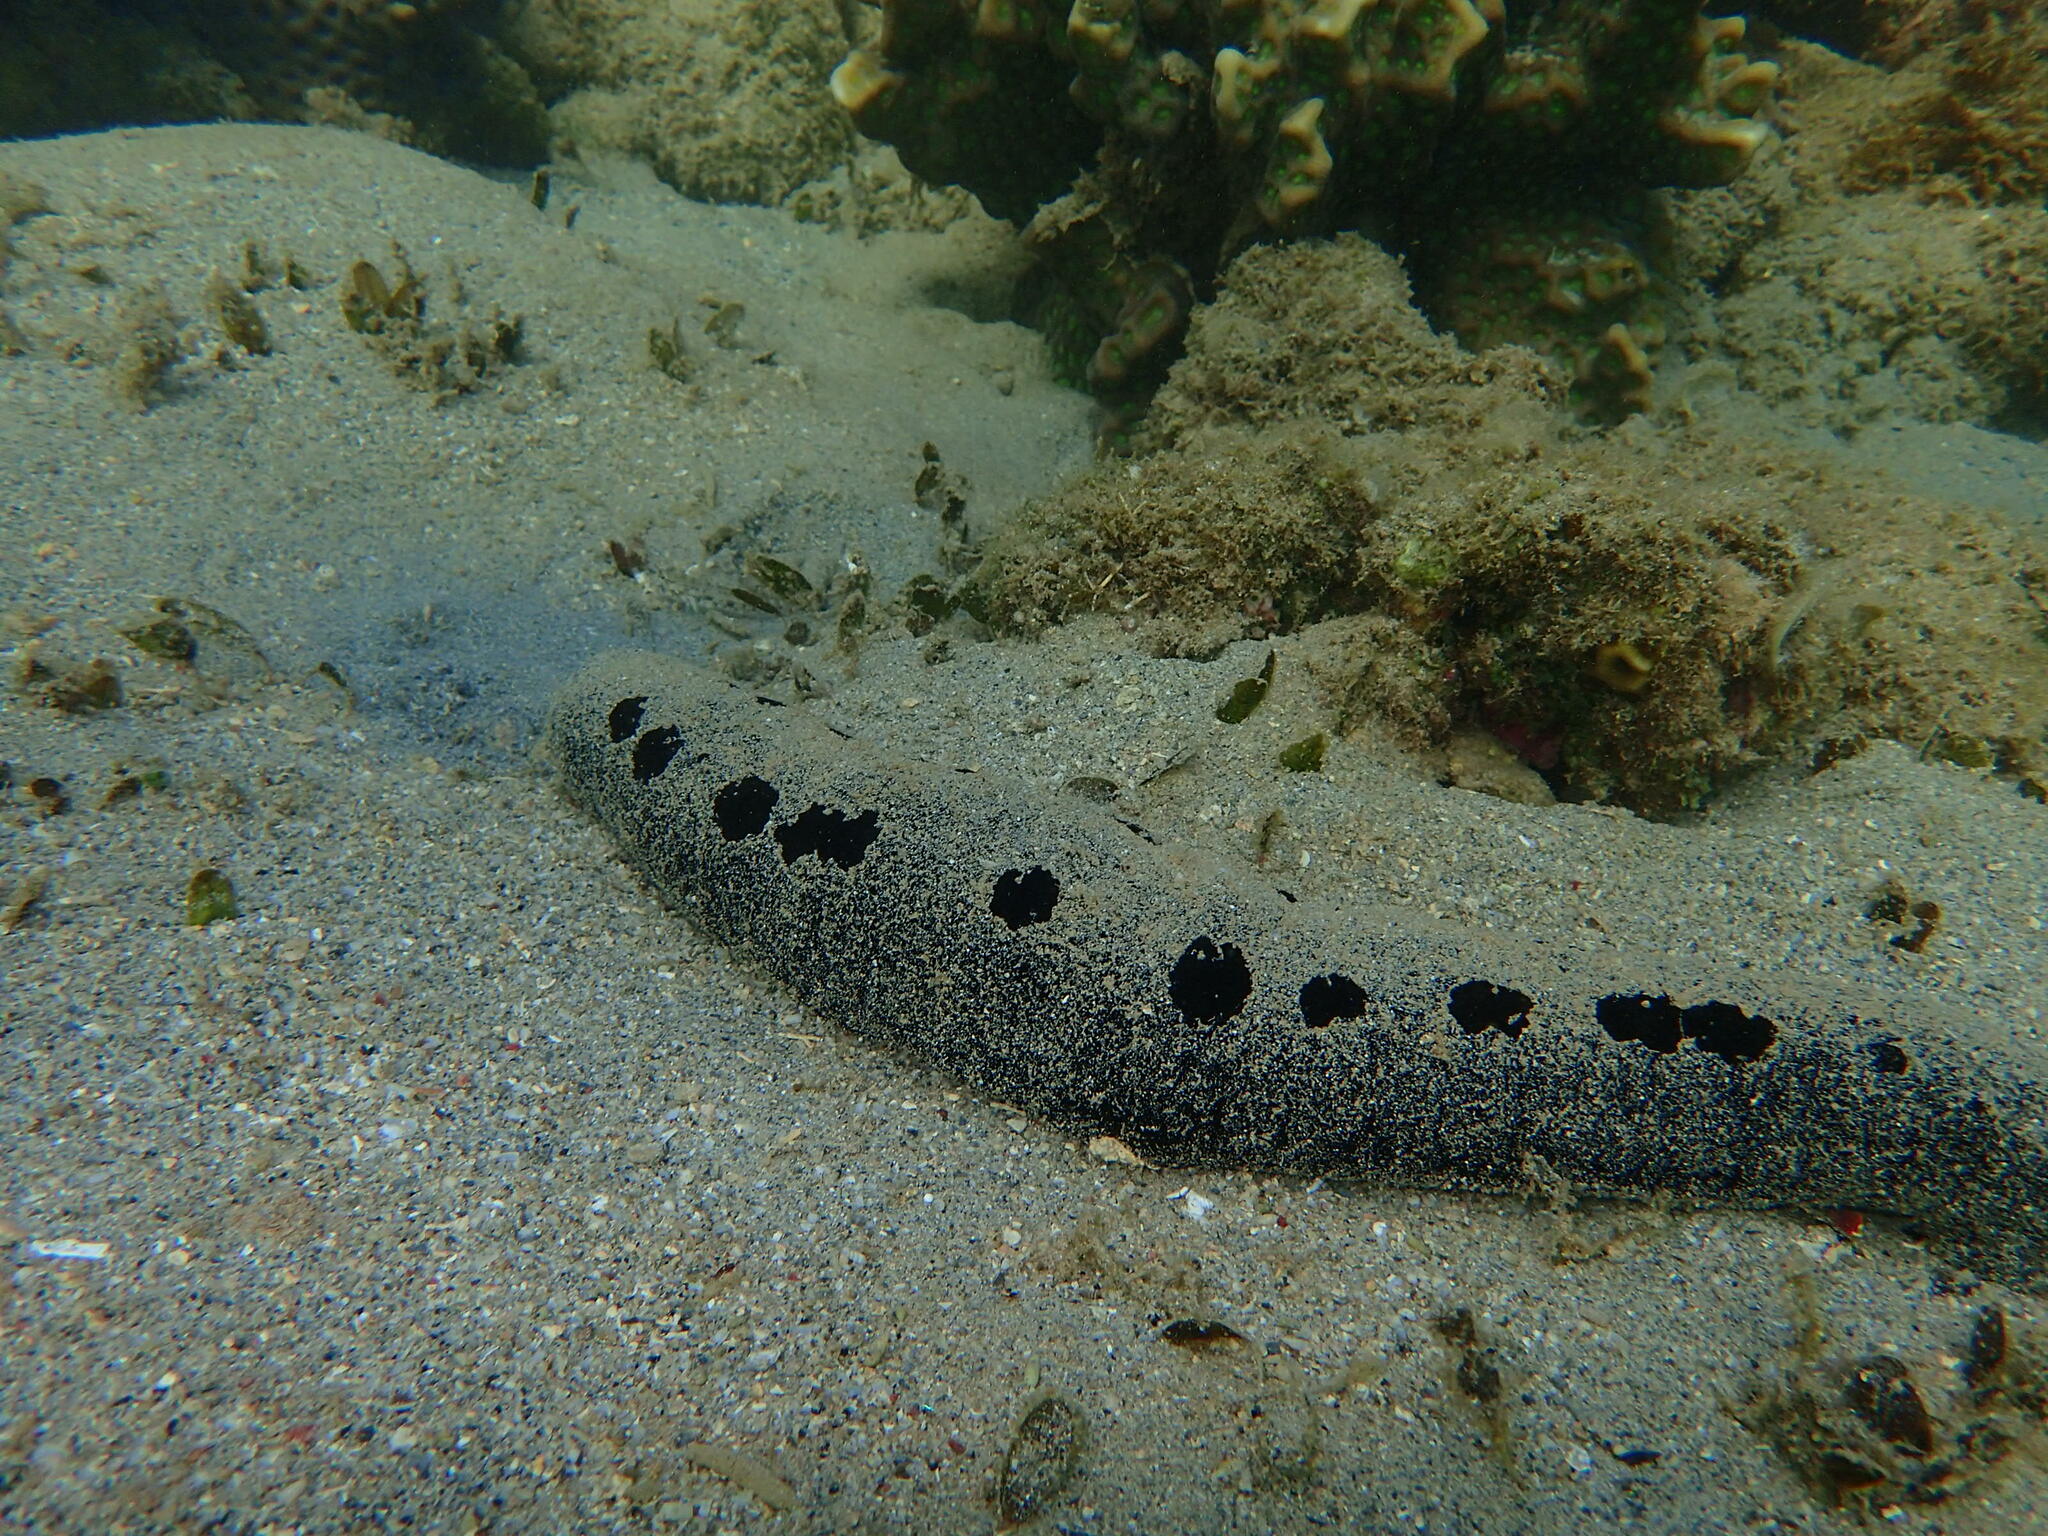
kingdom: Animalia
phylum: Echinodermata
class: Holothuroidea
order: Holothuriida
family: Holothuriidae
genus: Holothuria
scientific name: Holothuria atra
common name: Lollyfish
